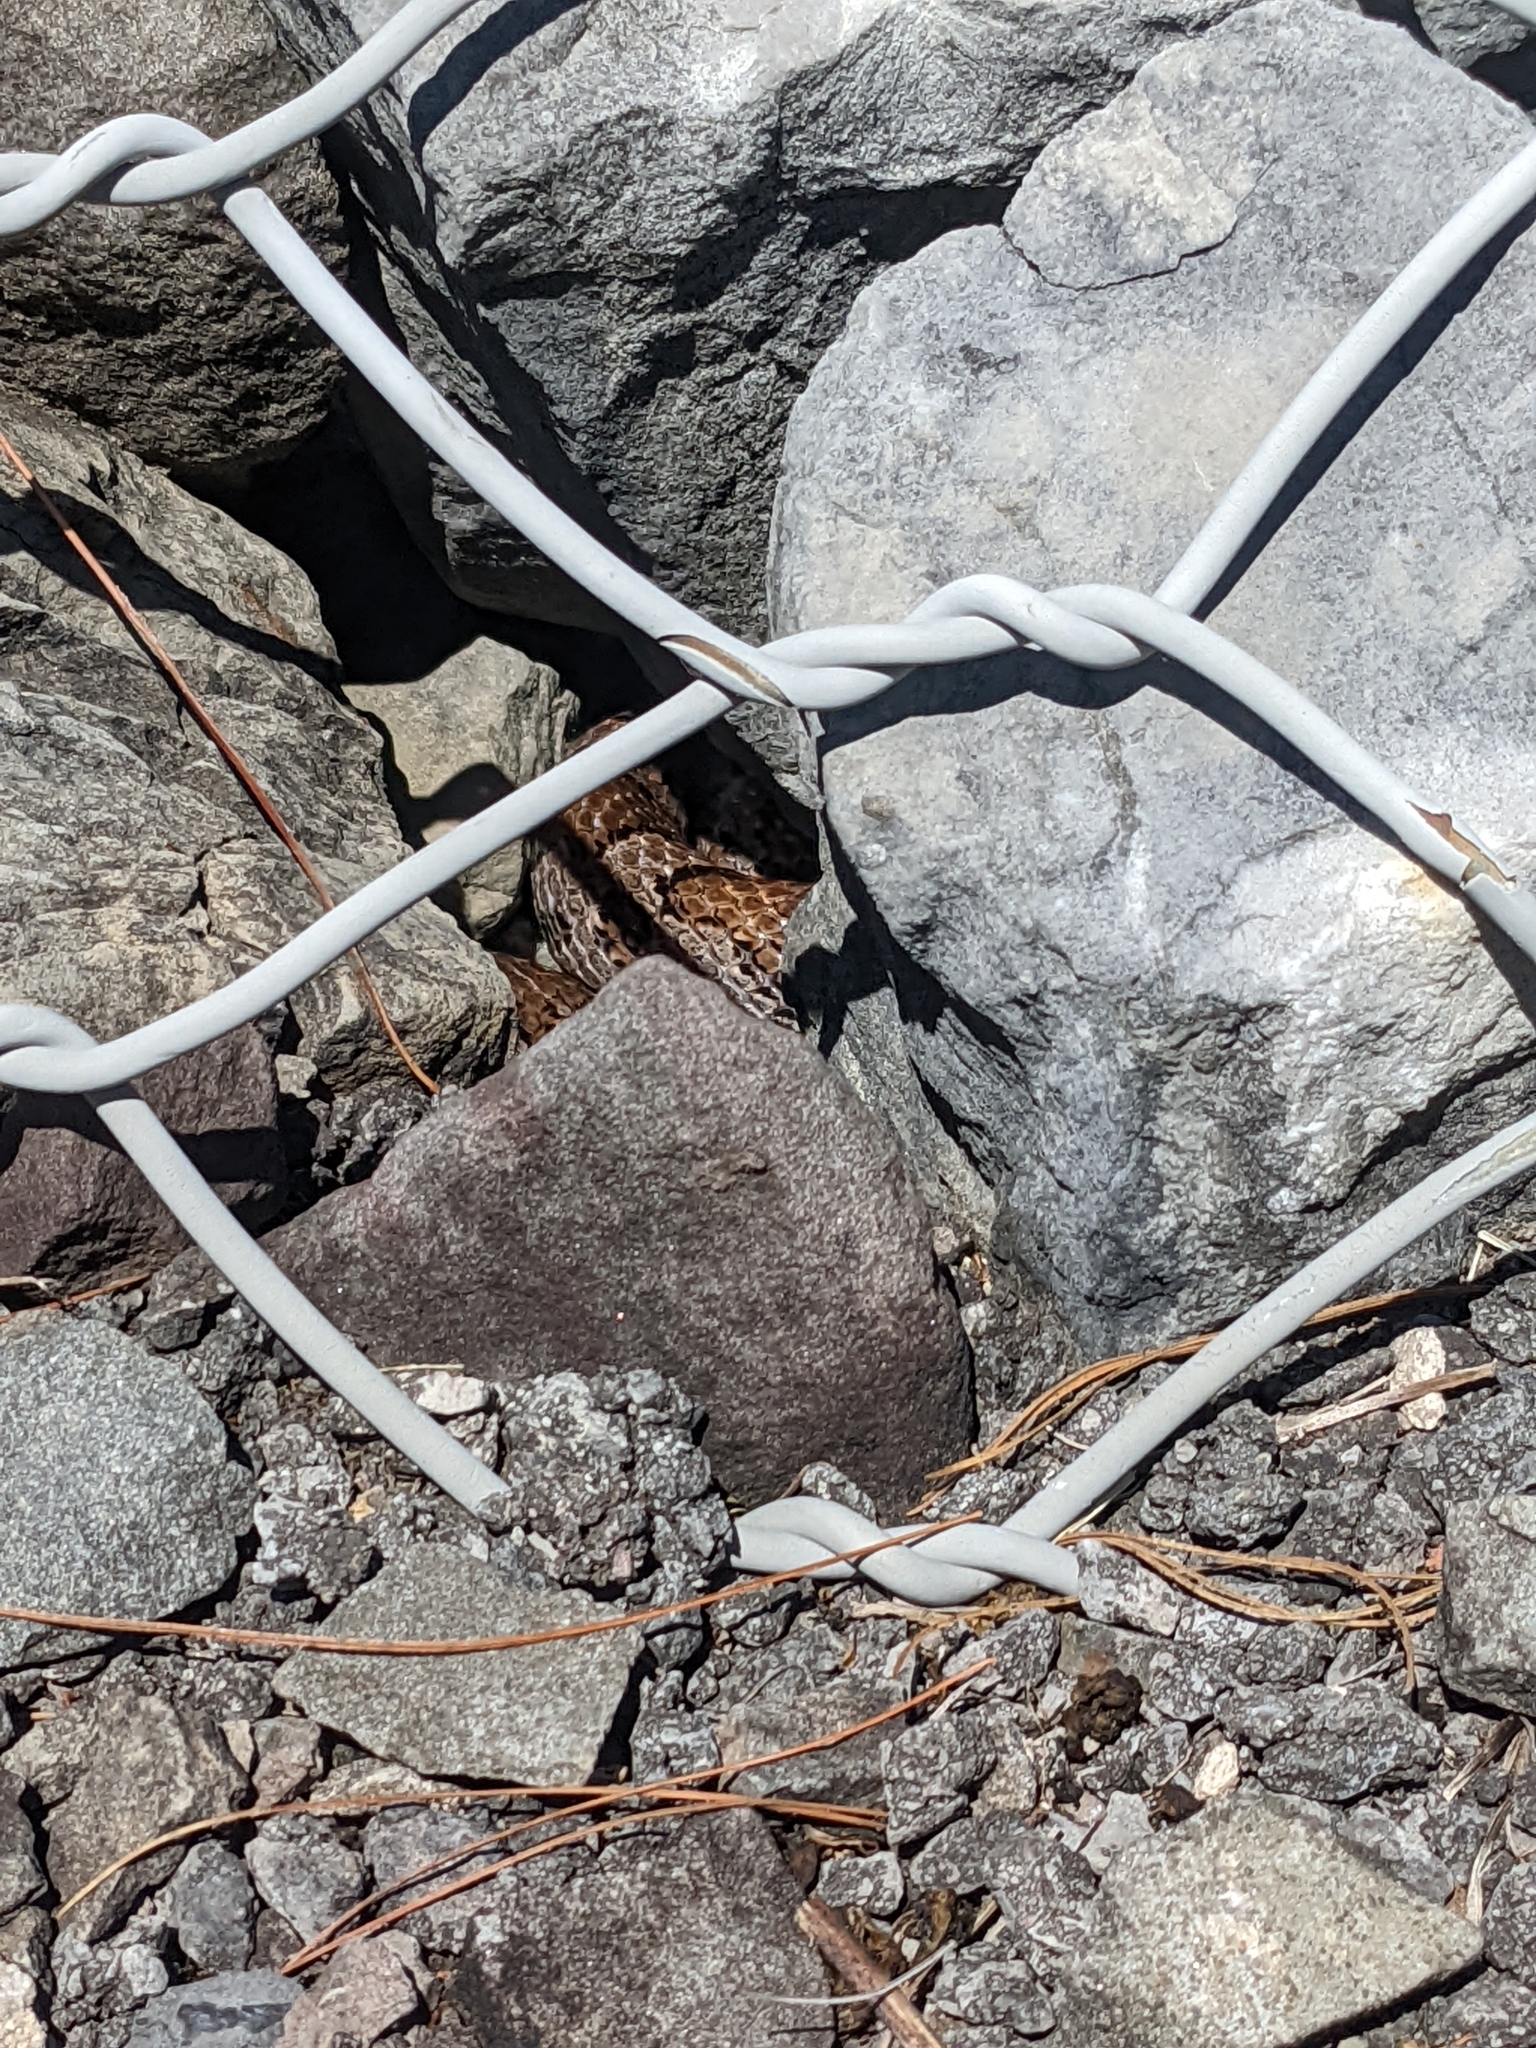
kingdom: Animalia
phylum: Chordata
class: Squamata
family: Colubridae
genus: Lampropeltis
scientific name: Lampropeltis triangulum
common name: Eastern milksnake
